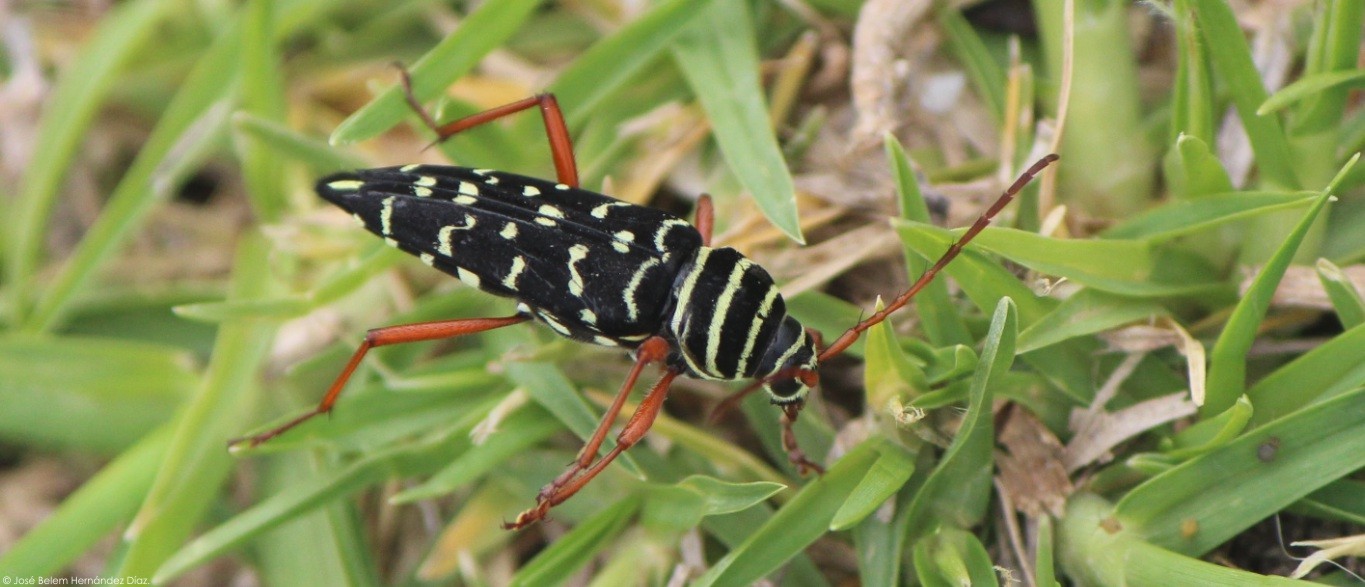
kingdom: Animalia
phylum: Arthropoda
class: Insecta
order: Coleoptera
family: Cerambycidae
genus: Placosternus
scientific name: Placosternus erythropus
